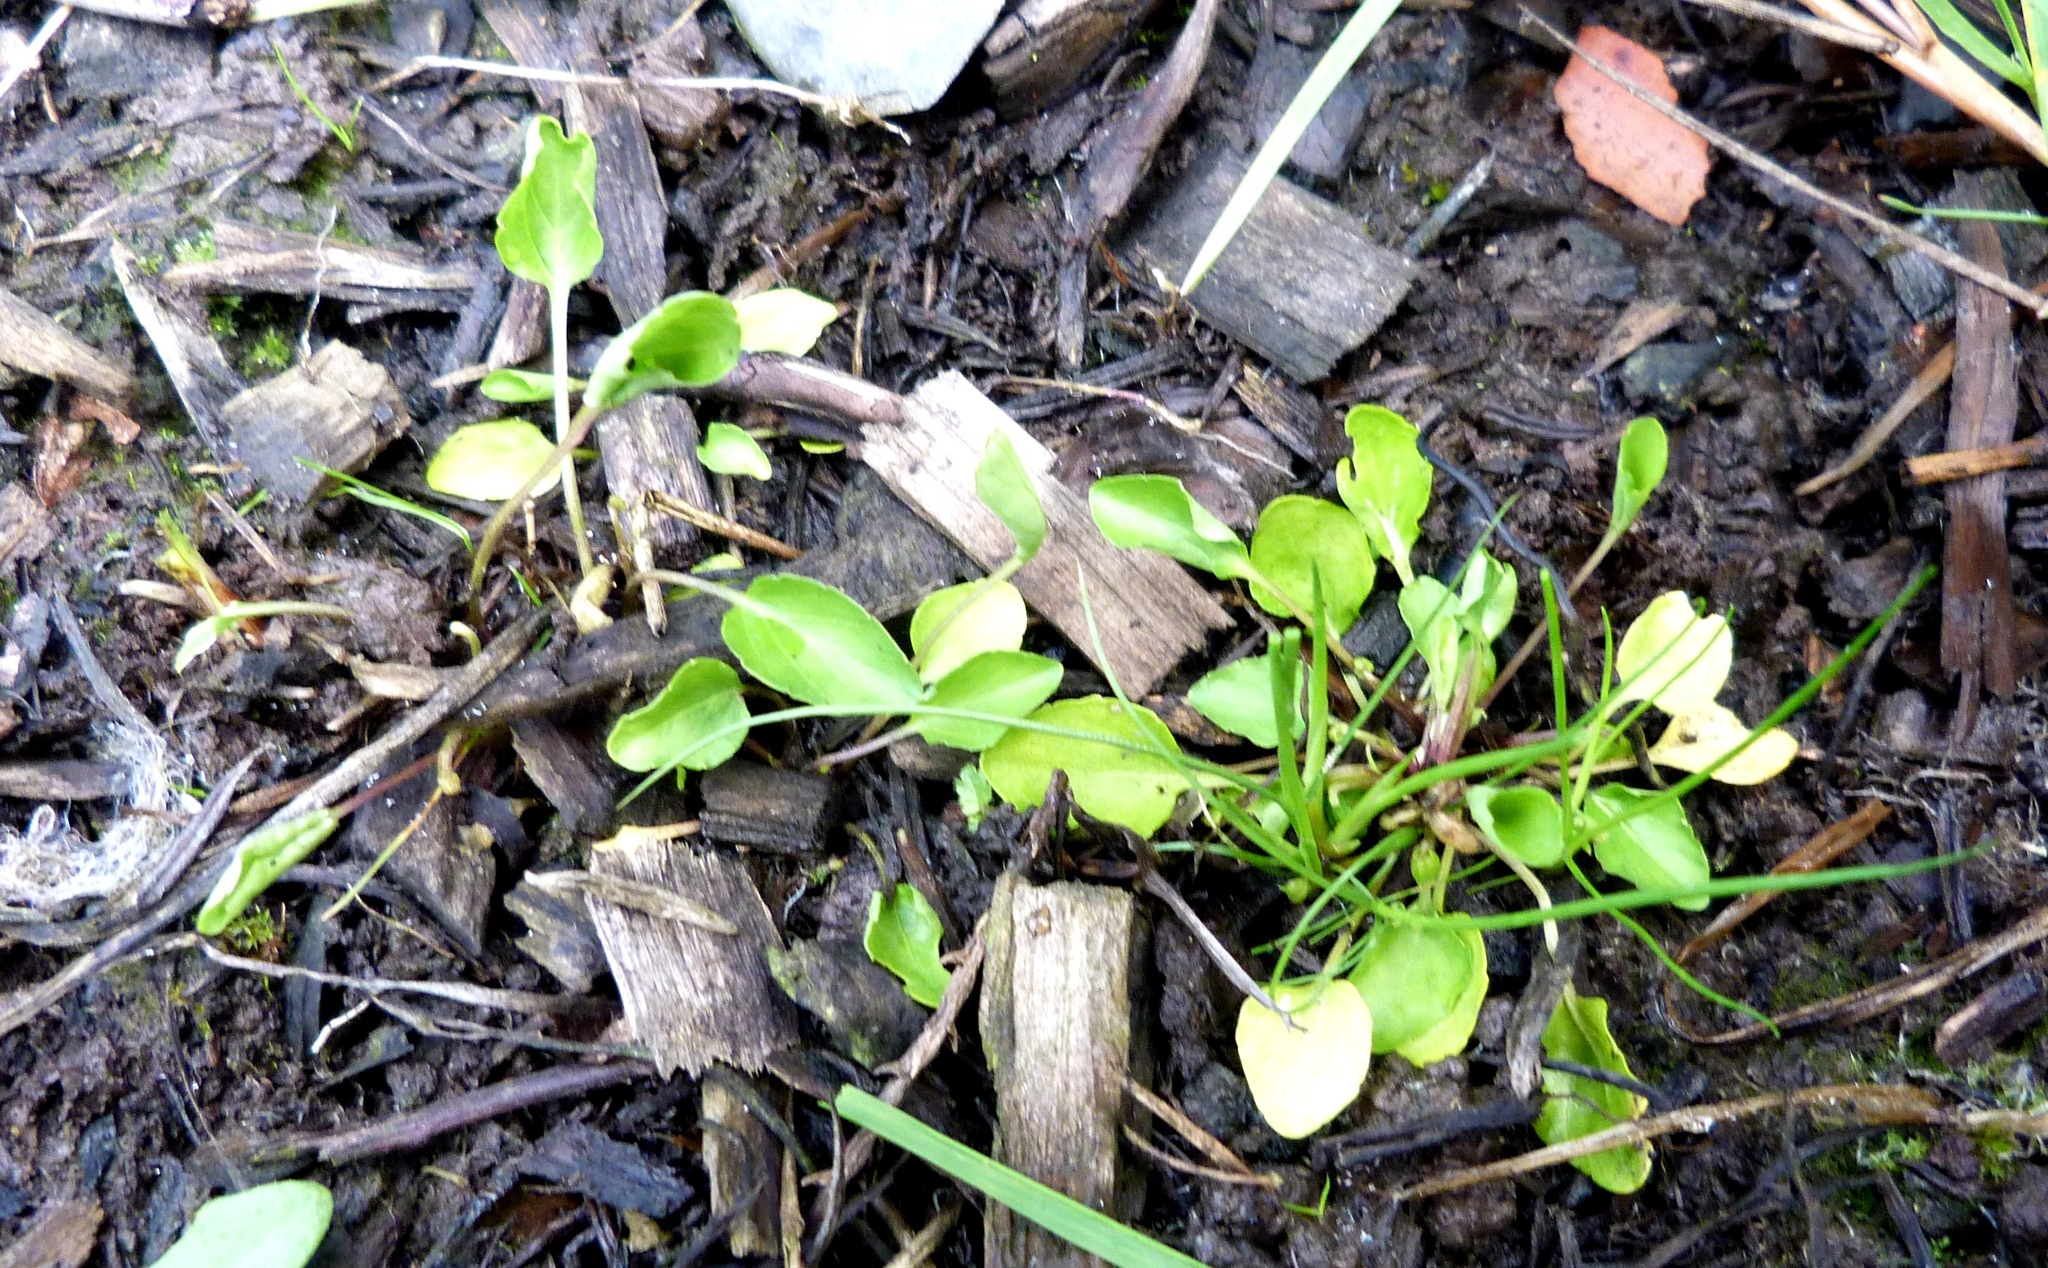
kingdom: Plantae
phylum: Tracheophyta
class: Magnoliopsida
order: Malpighiales
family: Violaceae
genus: Viola
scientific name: Viola cunninghamii
